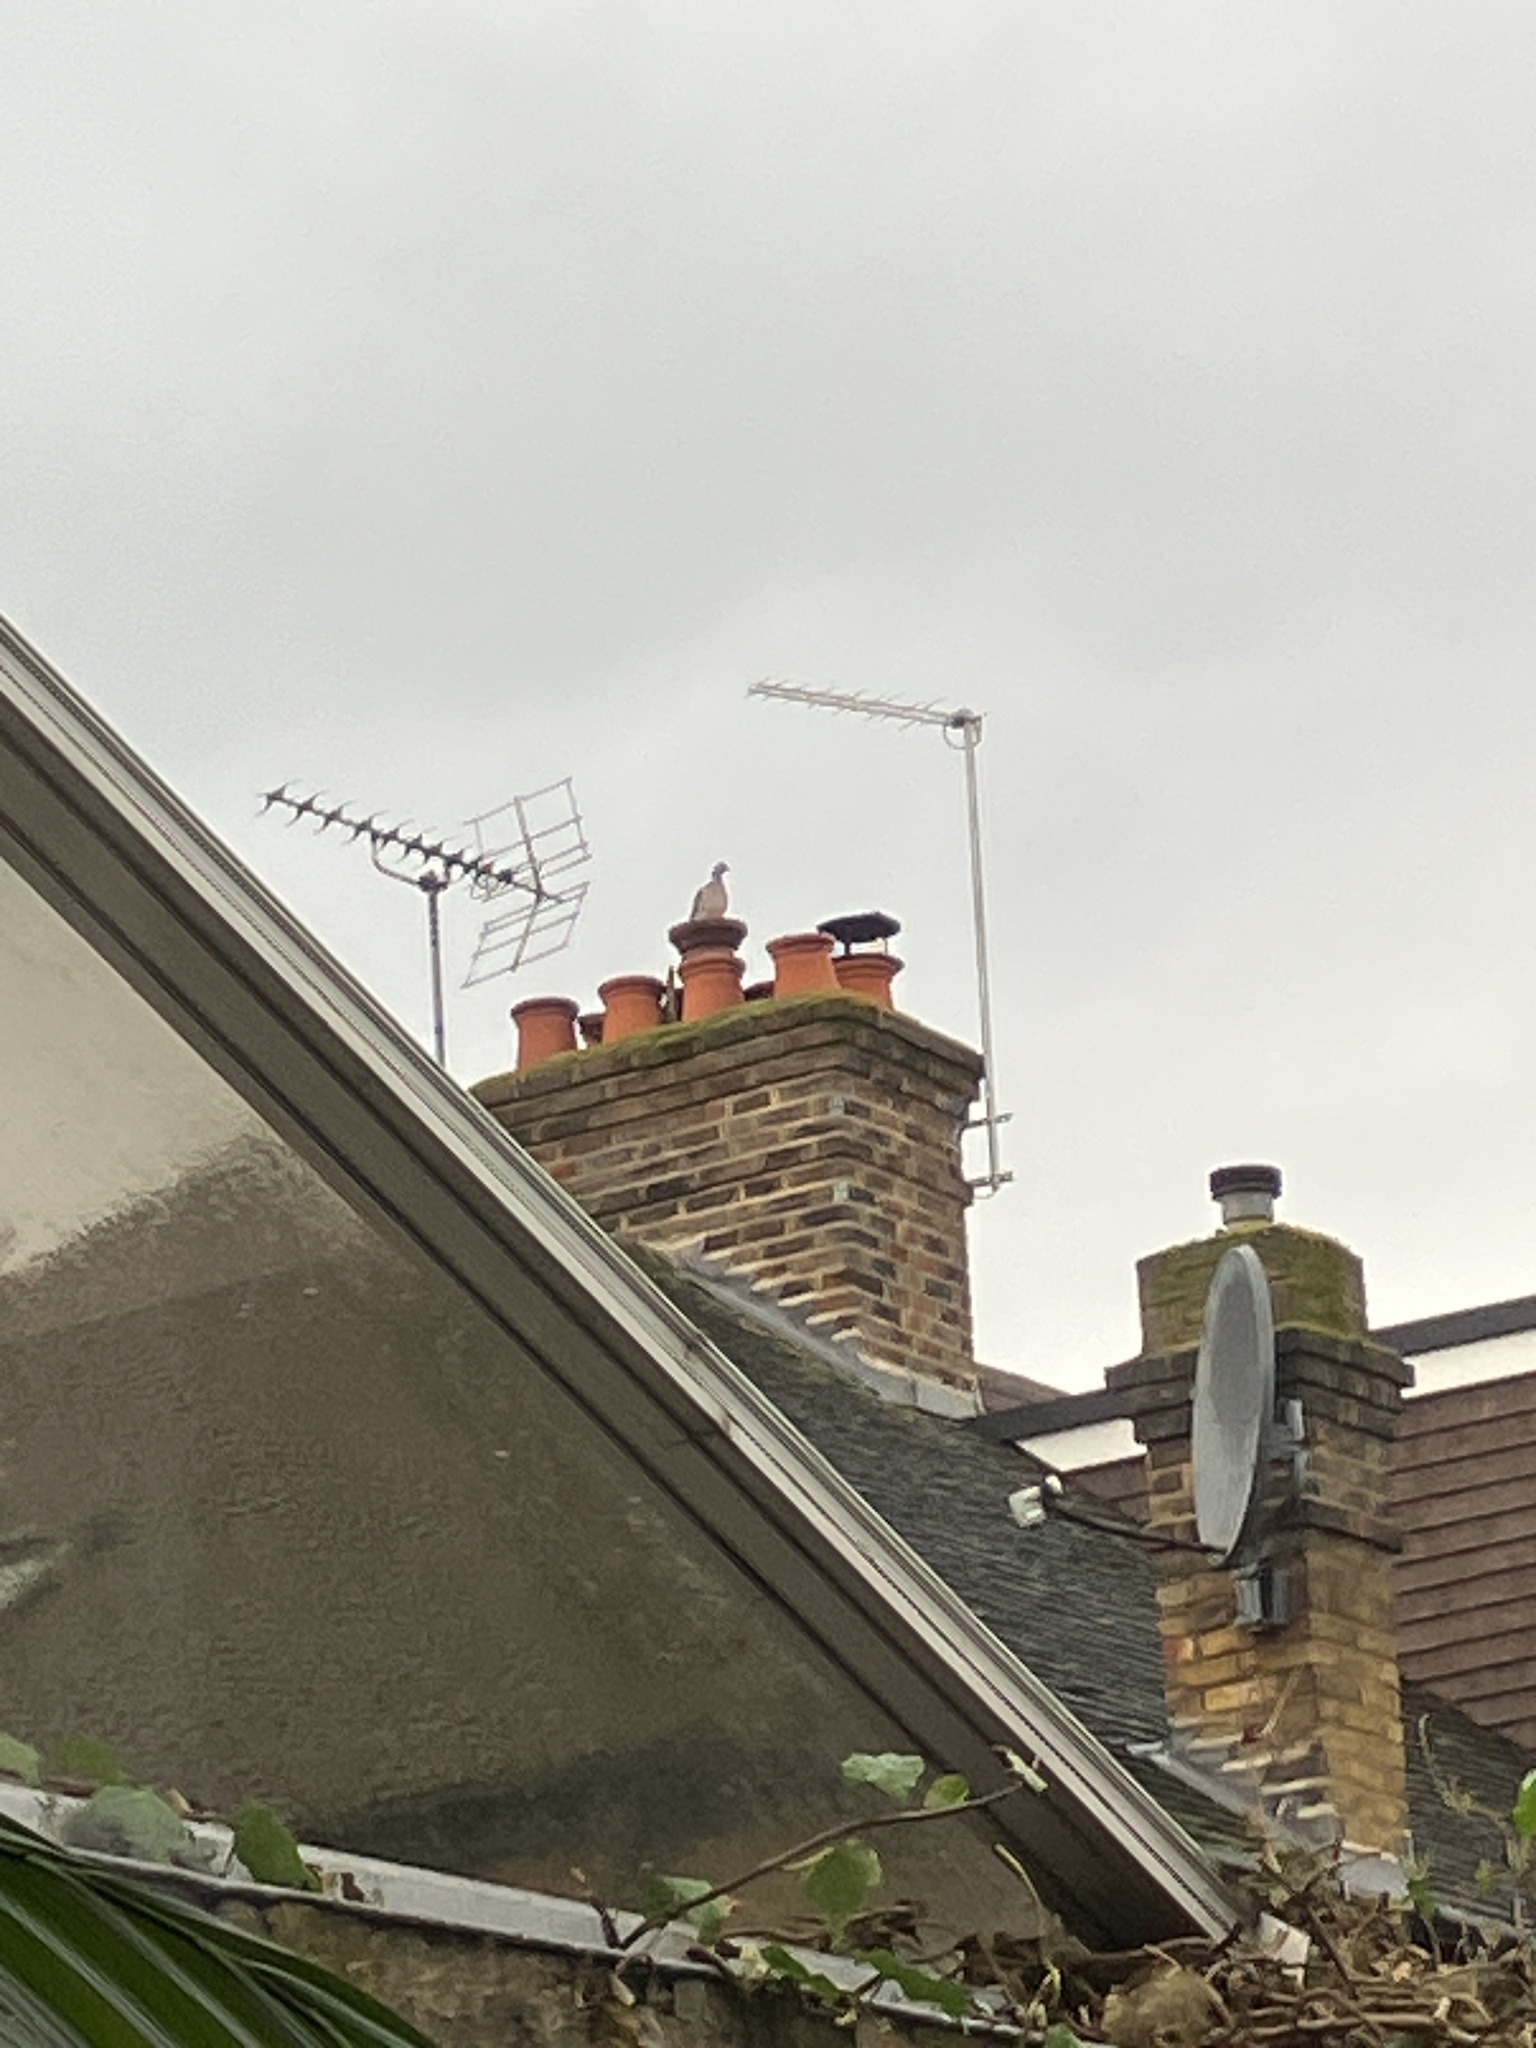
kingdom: Animalia
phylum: Chordata
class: Aves
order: Columbiformes
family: Columbidae
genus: Columba
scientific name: Columba palumbus
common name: Common wood pigeon
